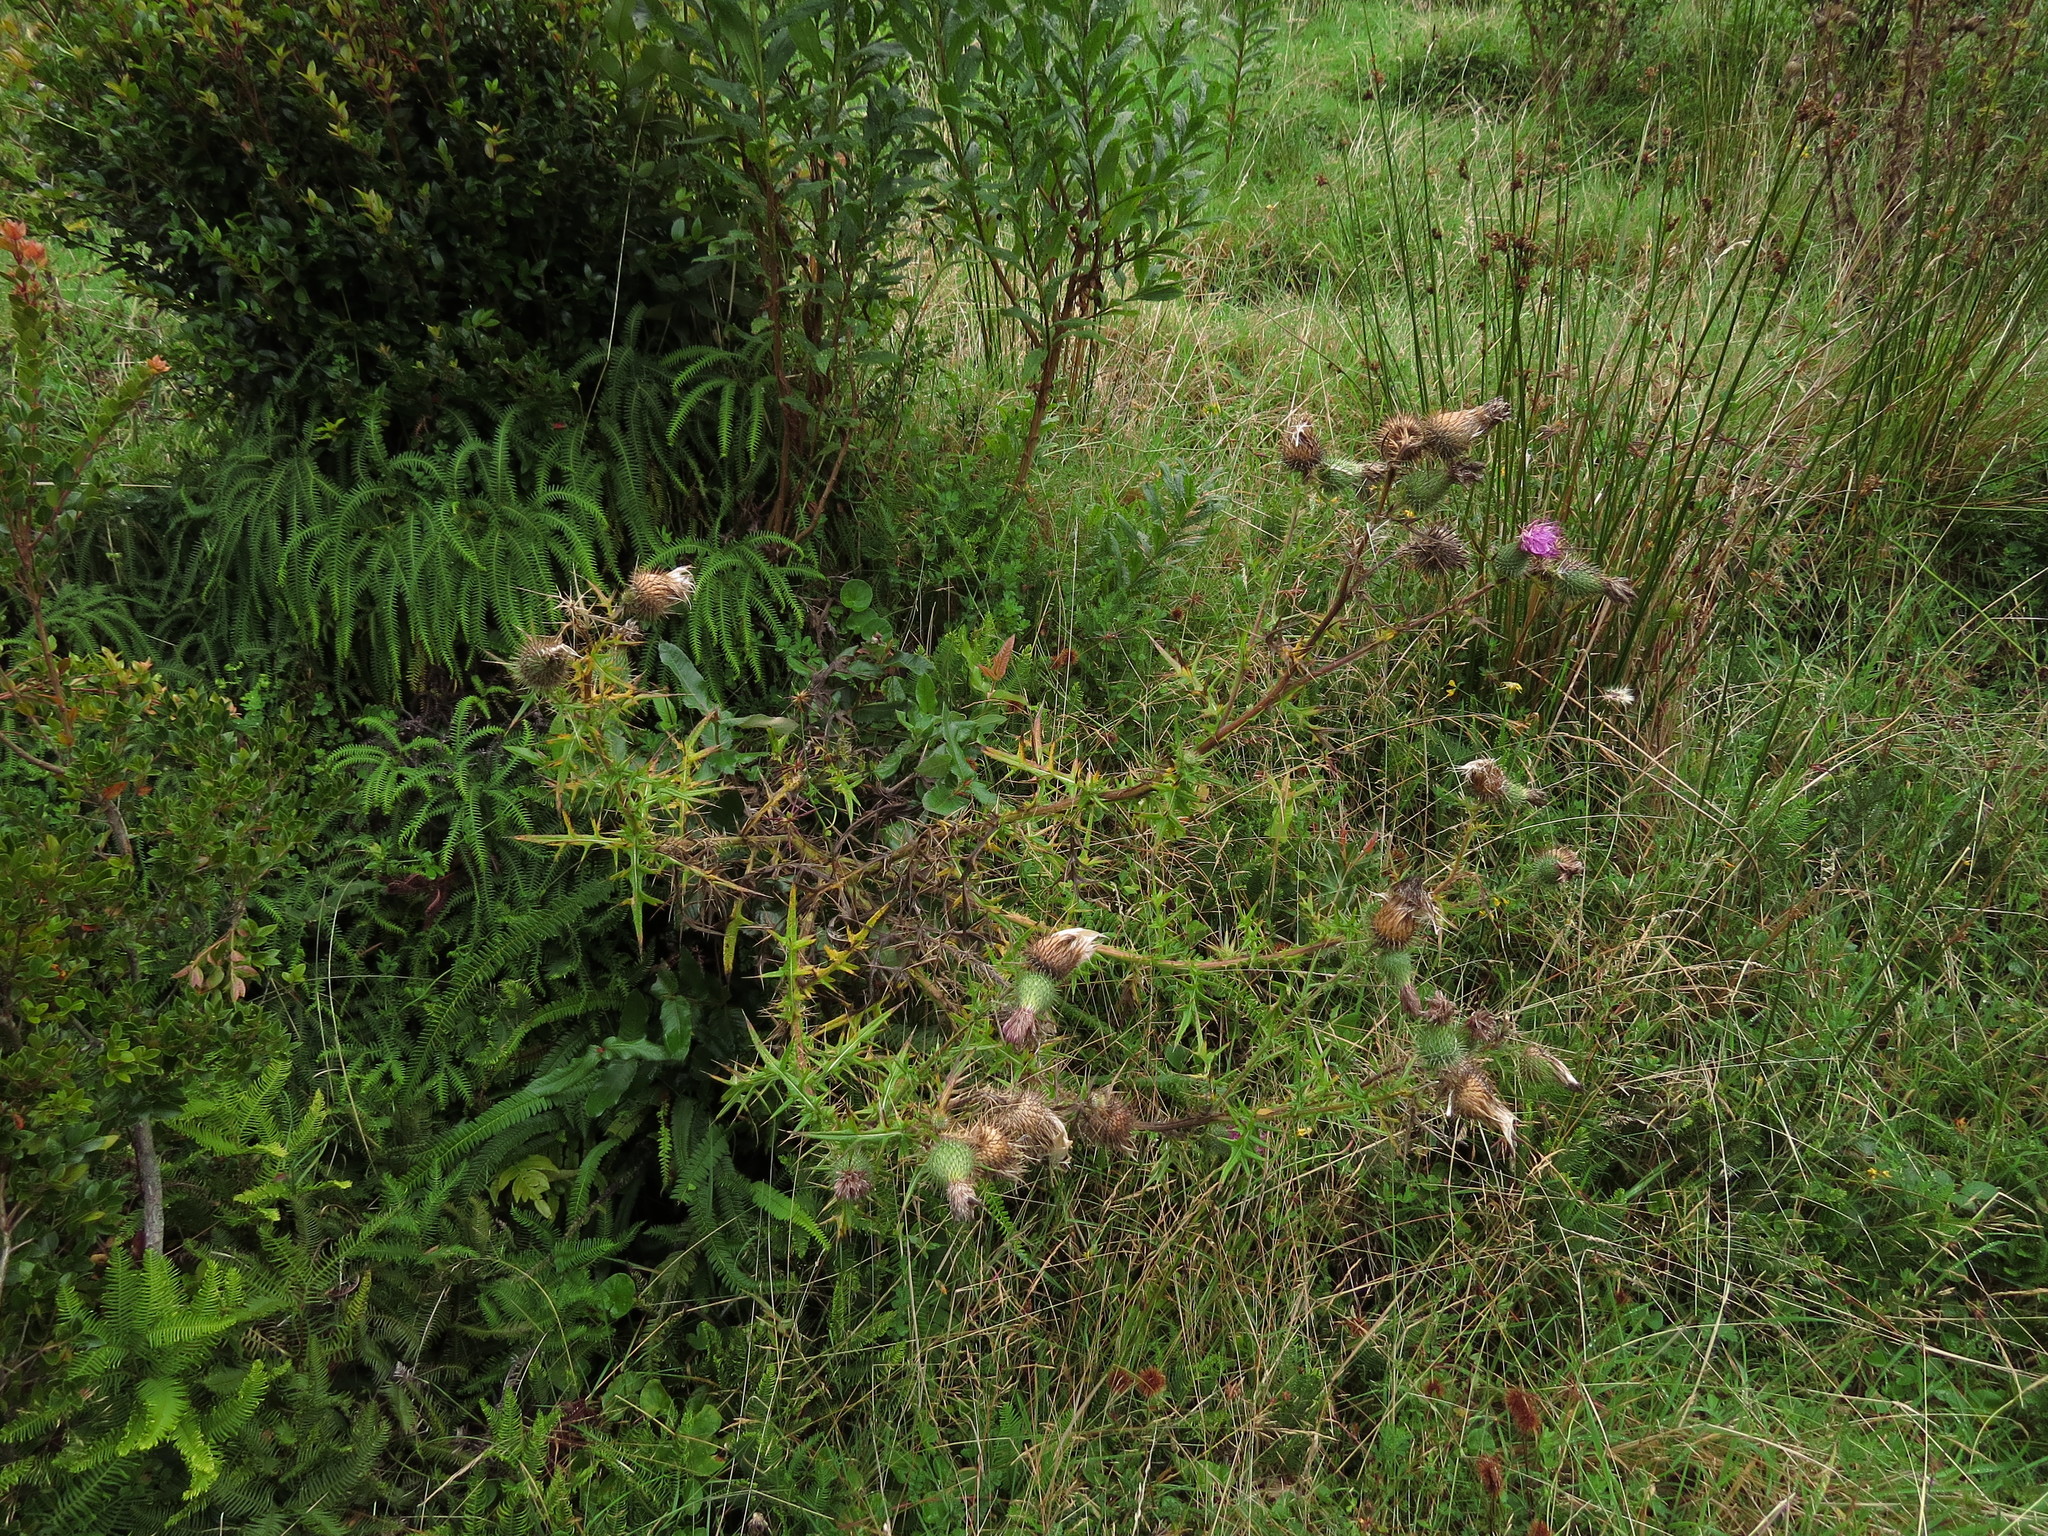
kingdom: Plantae
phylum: Tracheophyta
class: Magnoliopsida
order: Asterales
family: Asteraceae
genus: Cirsium
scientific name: Cirsium vulgare
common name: Bull thistle
